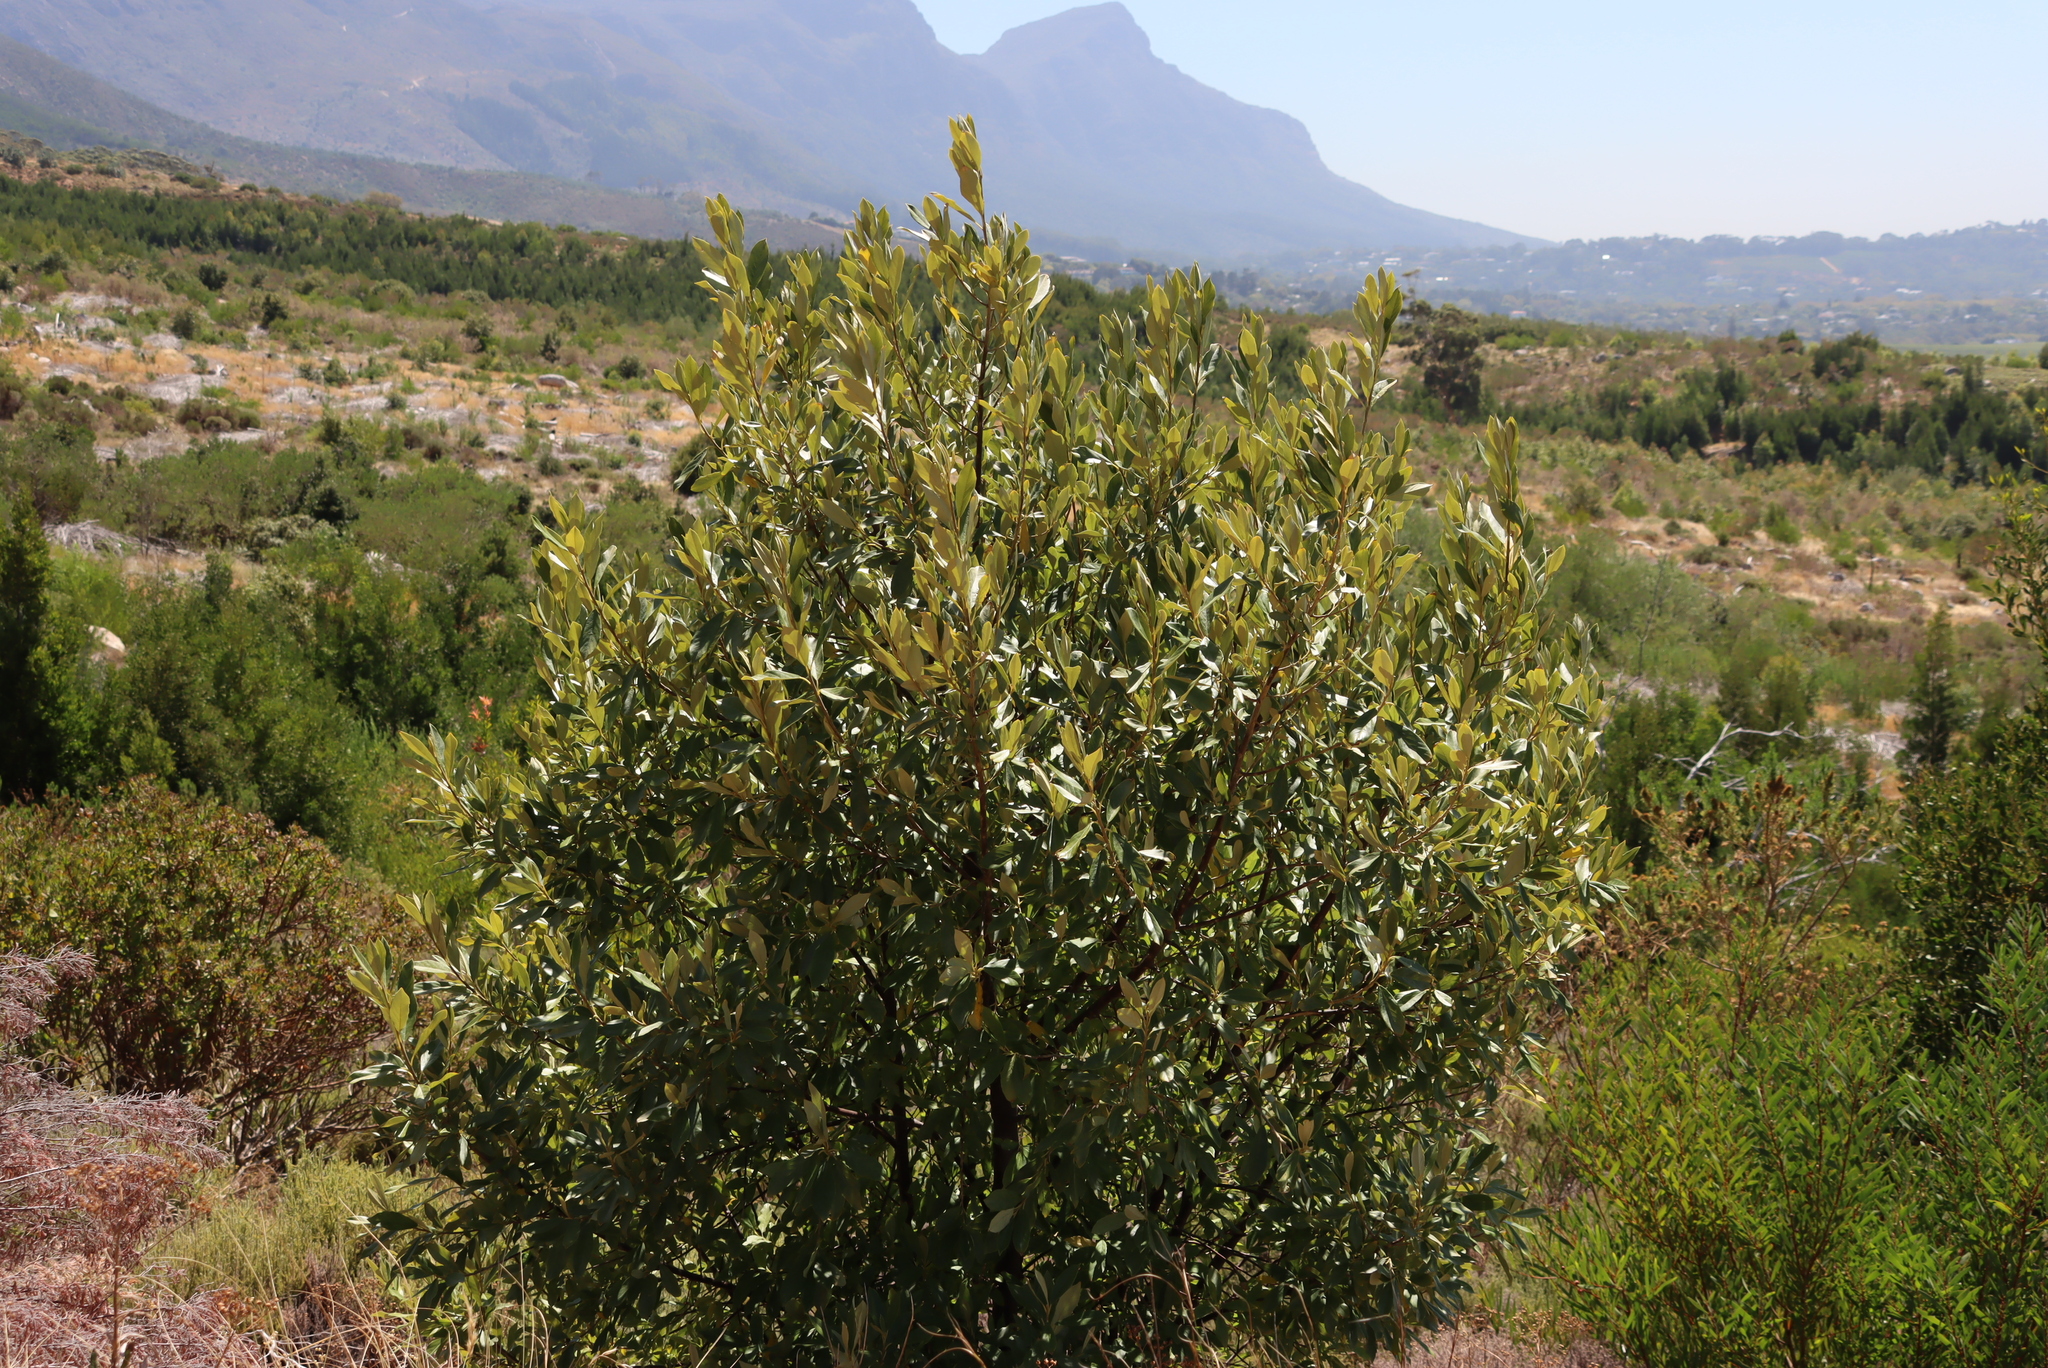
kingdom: Plantae
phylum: Tracheophyta
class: Magnoliopsida
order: Malpighiales
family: Achariaceae
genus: Kiggelaria
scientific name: Kiggelaria africana
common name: Wild peach
